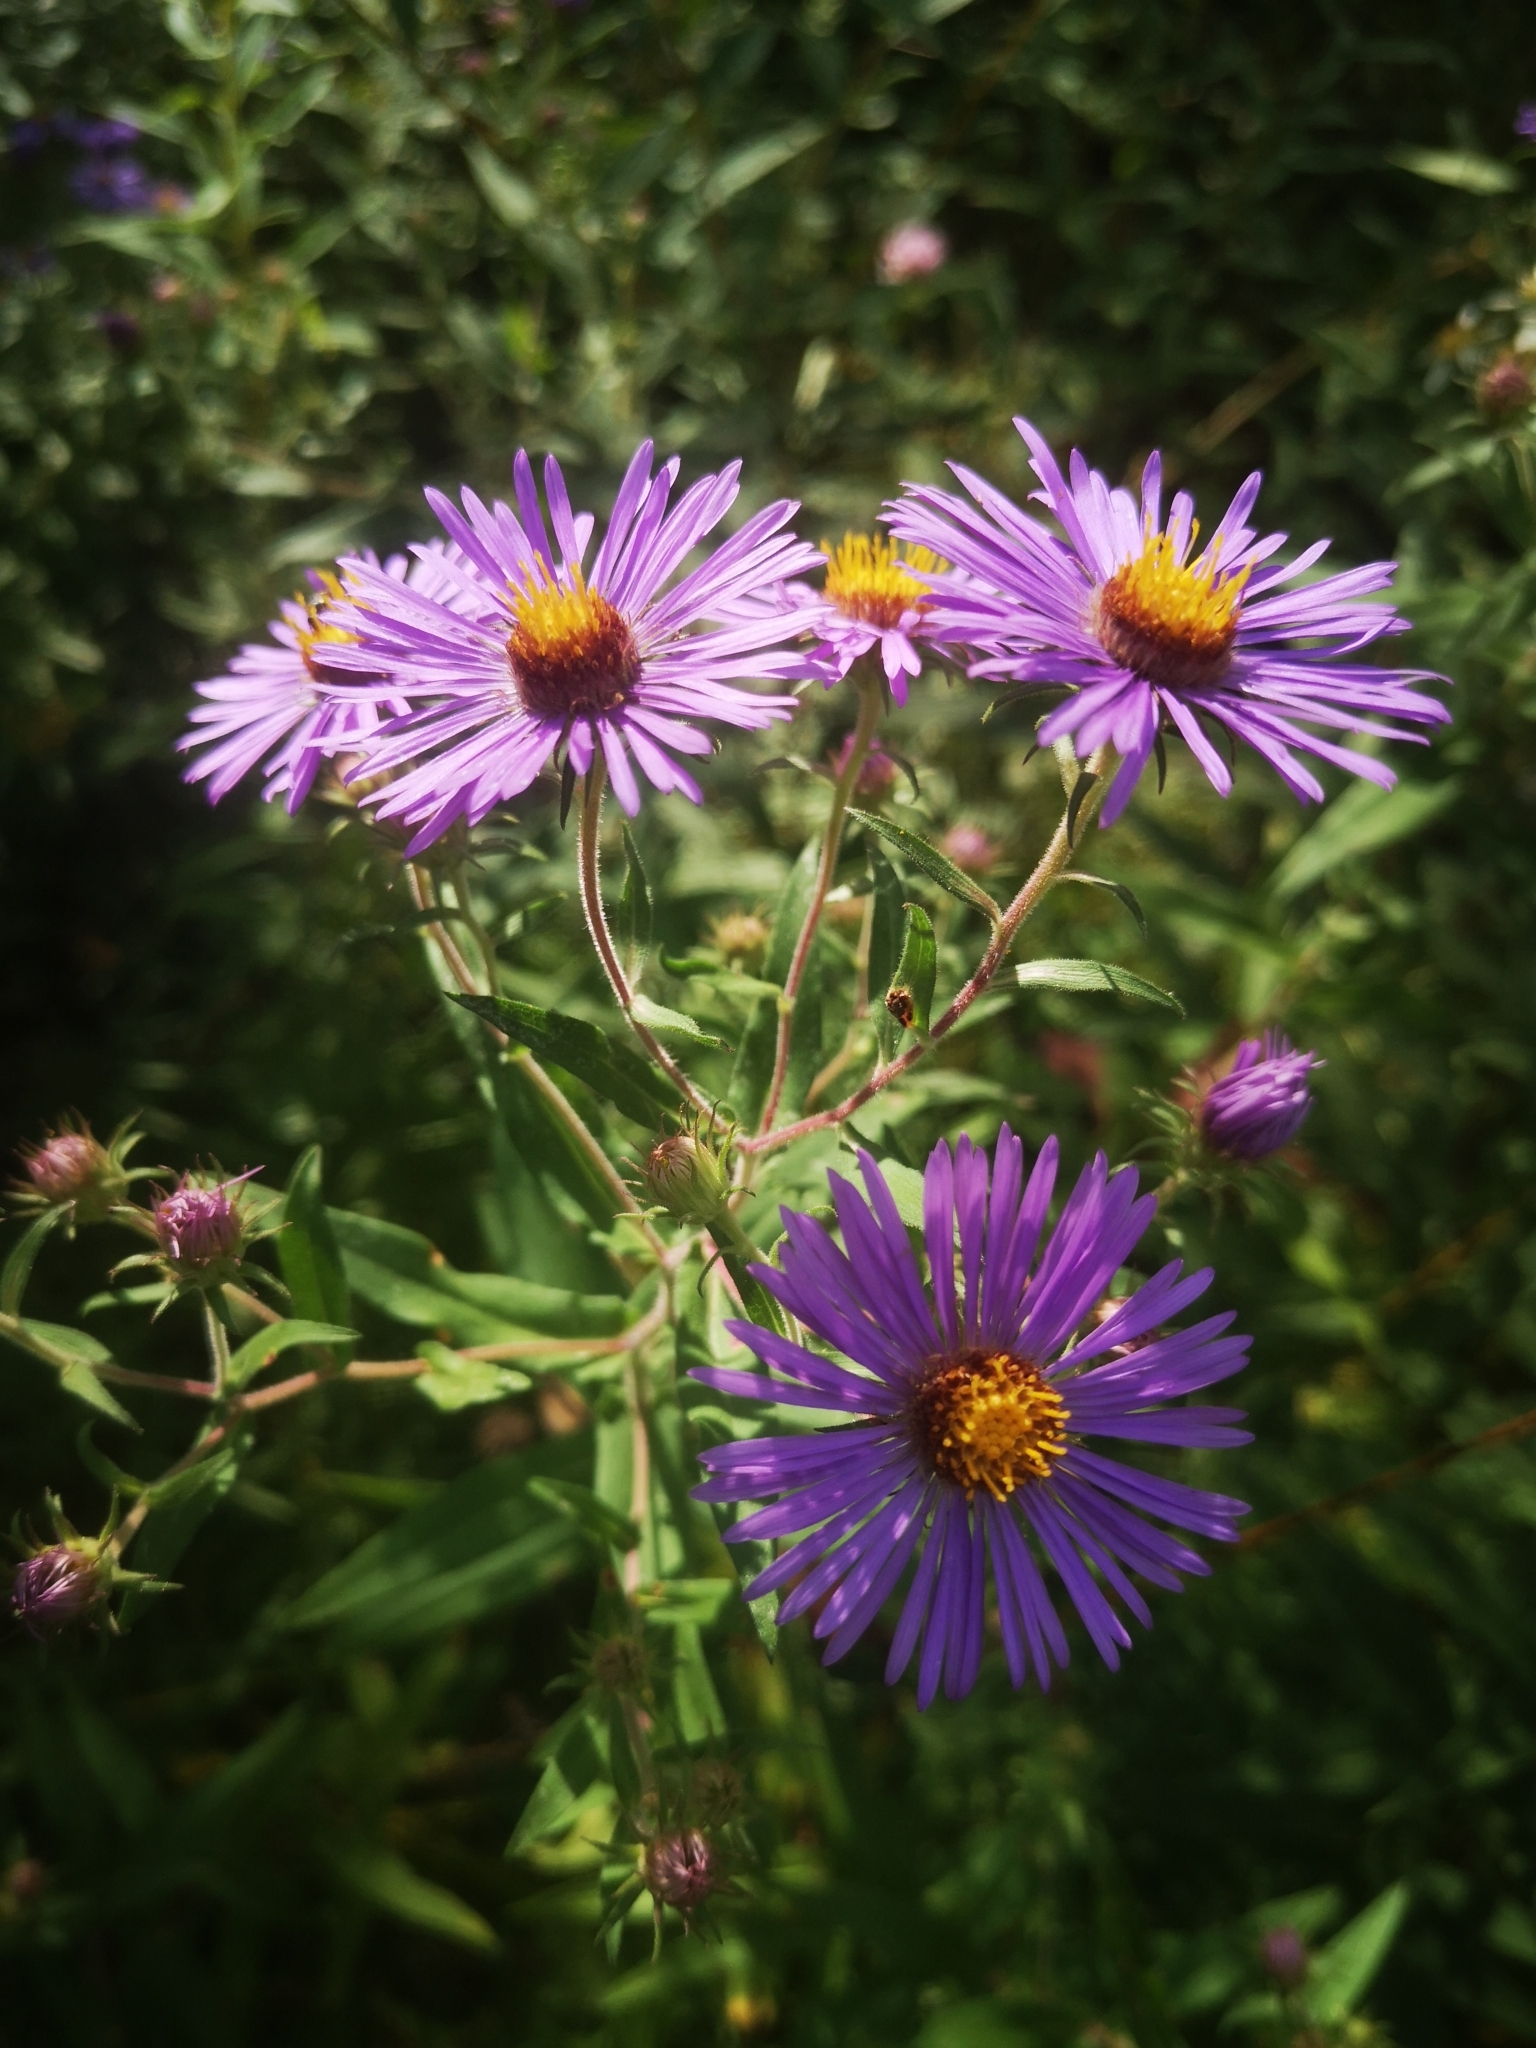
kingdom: Plantae
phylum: Tracheophyta
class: Magnoliopsida
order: Asterales
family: Asteraceae
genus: Symphyotrichum
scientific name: Symphyotrichum novae-angliae
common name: Michaelmas daisy
